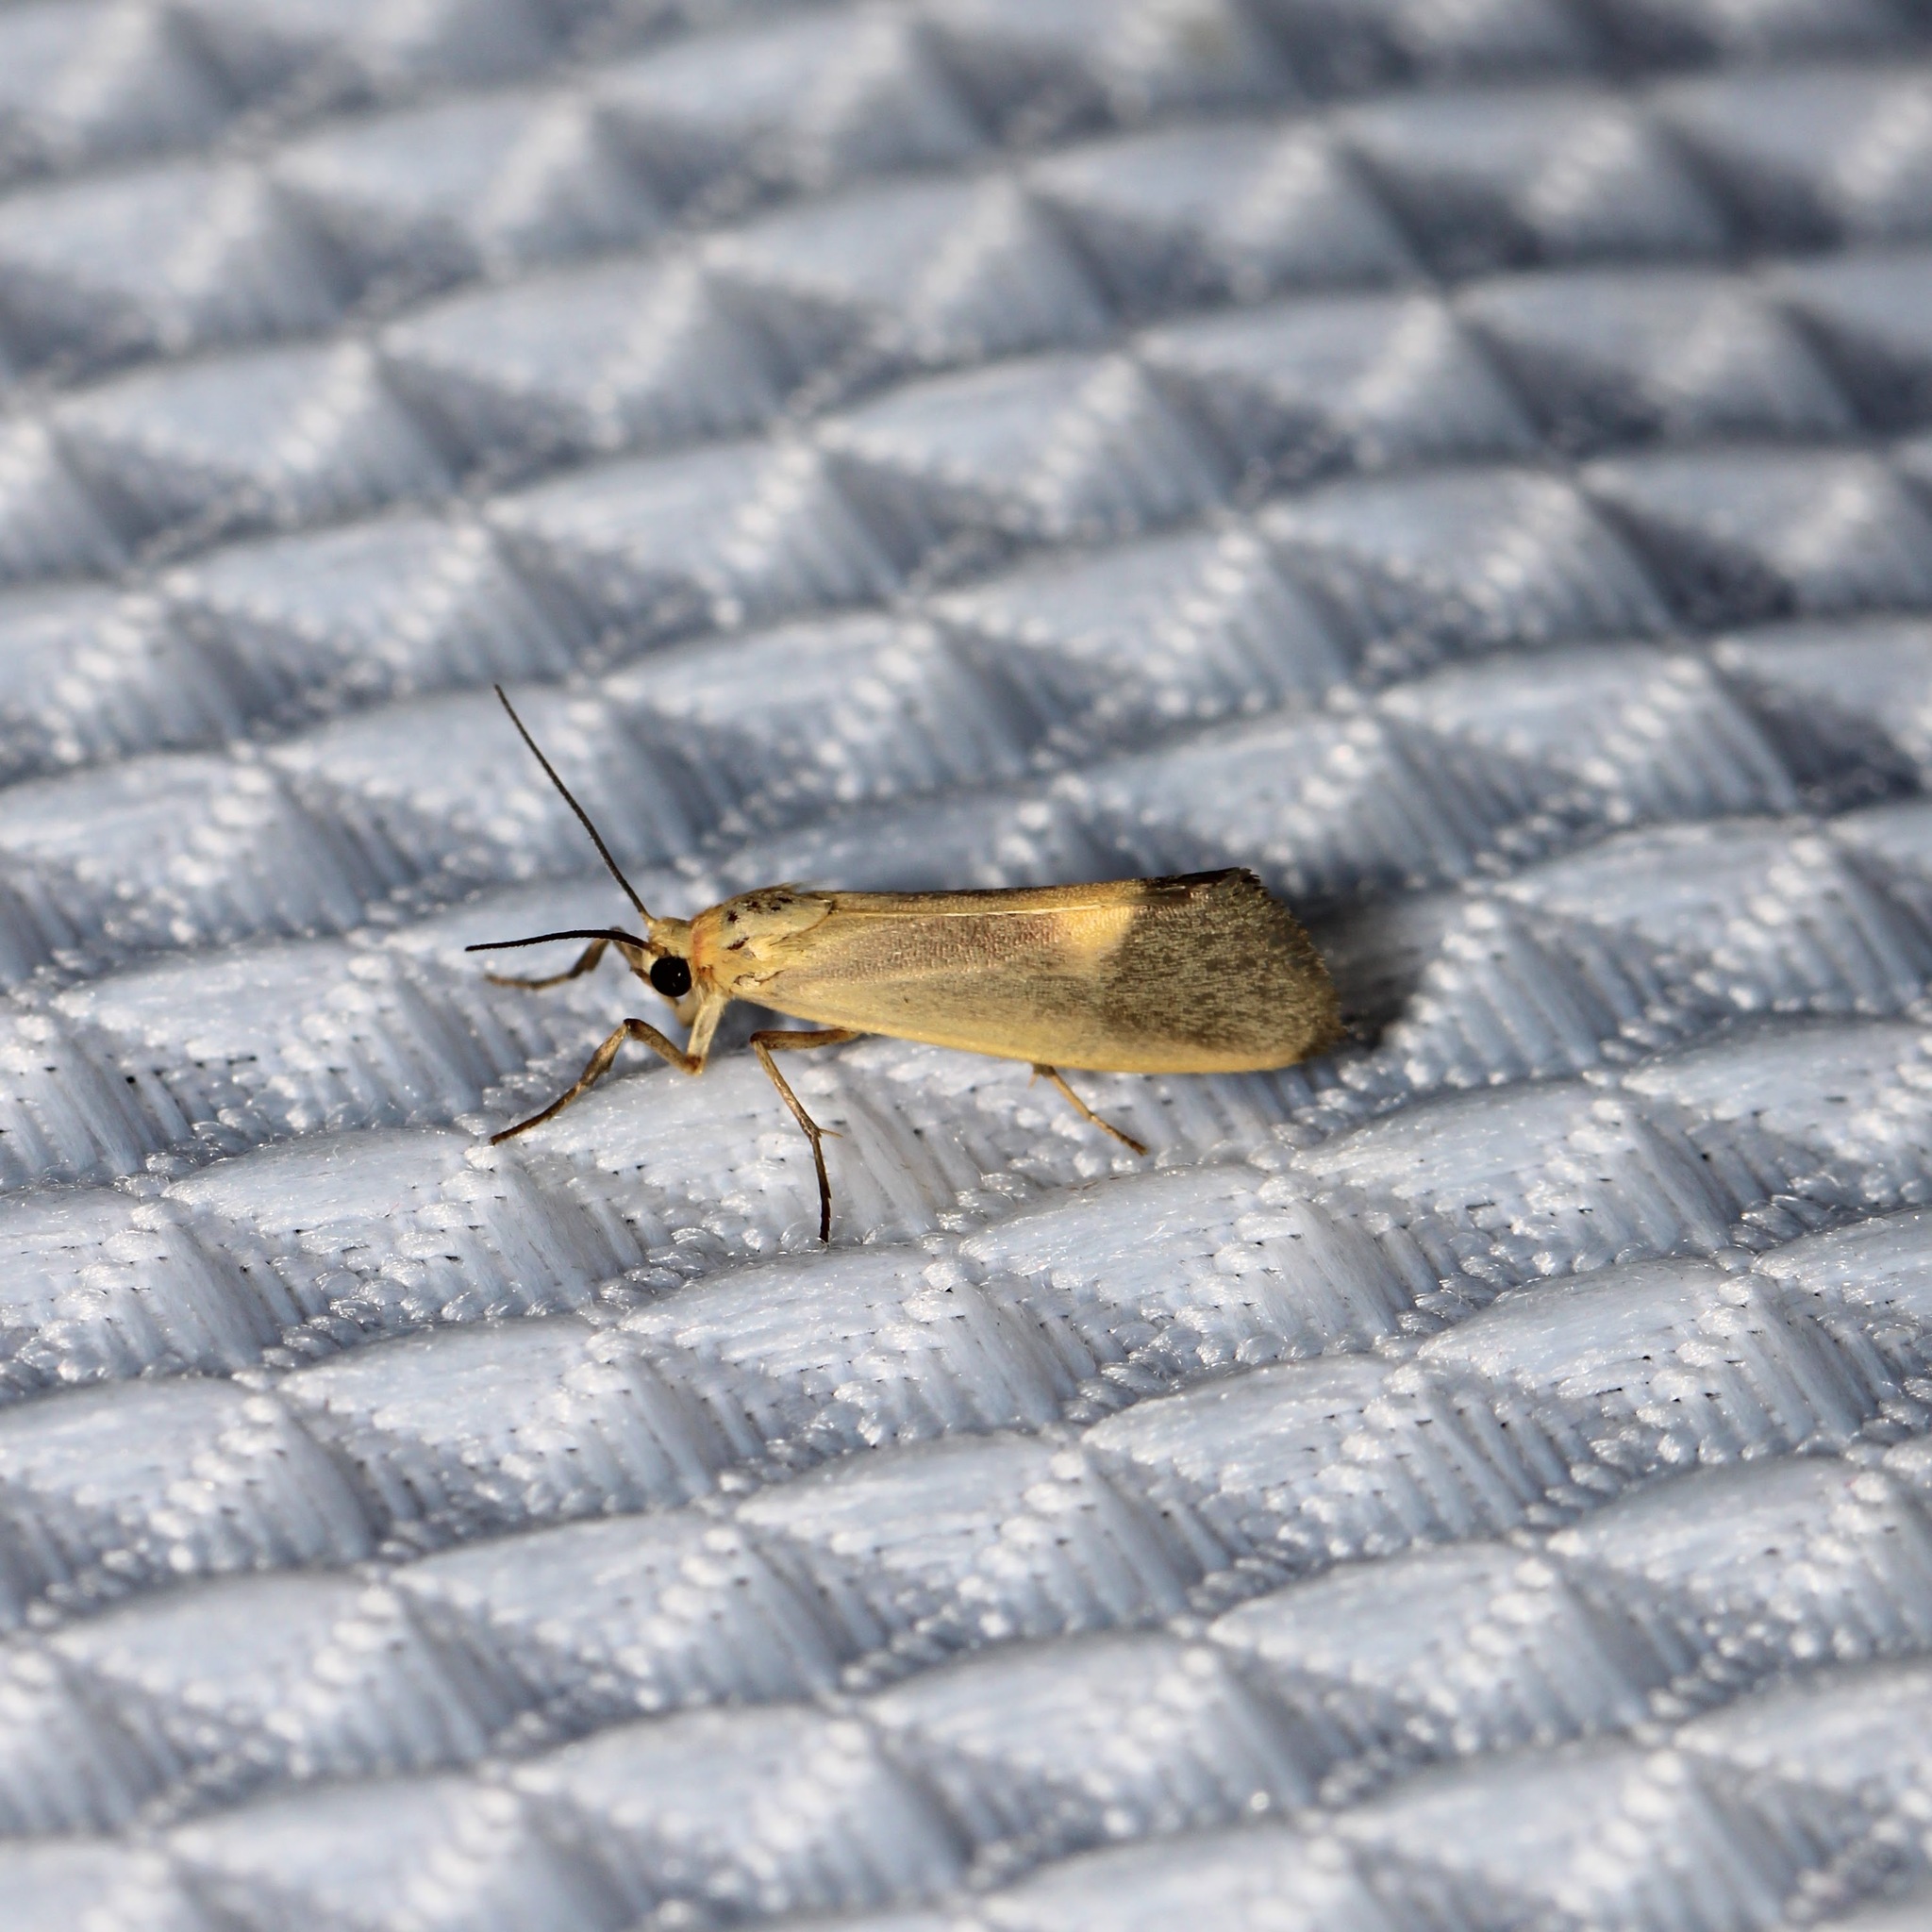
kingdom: Animalia
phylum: Arthropoda
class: Insecta
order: Lepidoptera
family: Erebidae
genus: Cisthene
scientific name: Cisthene plumbea
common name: Lead colored lichen moth
